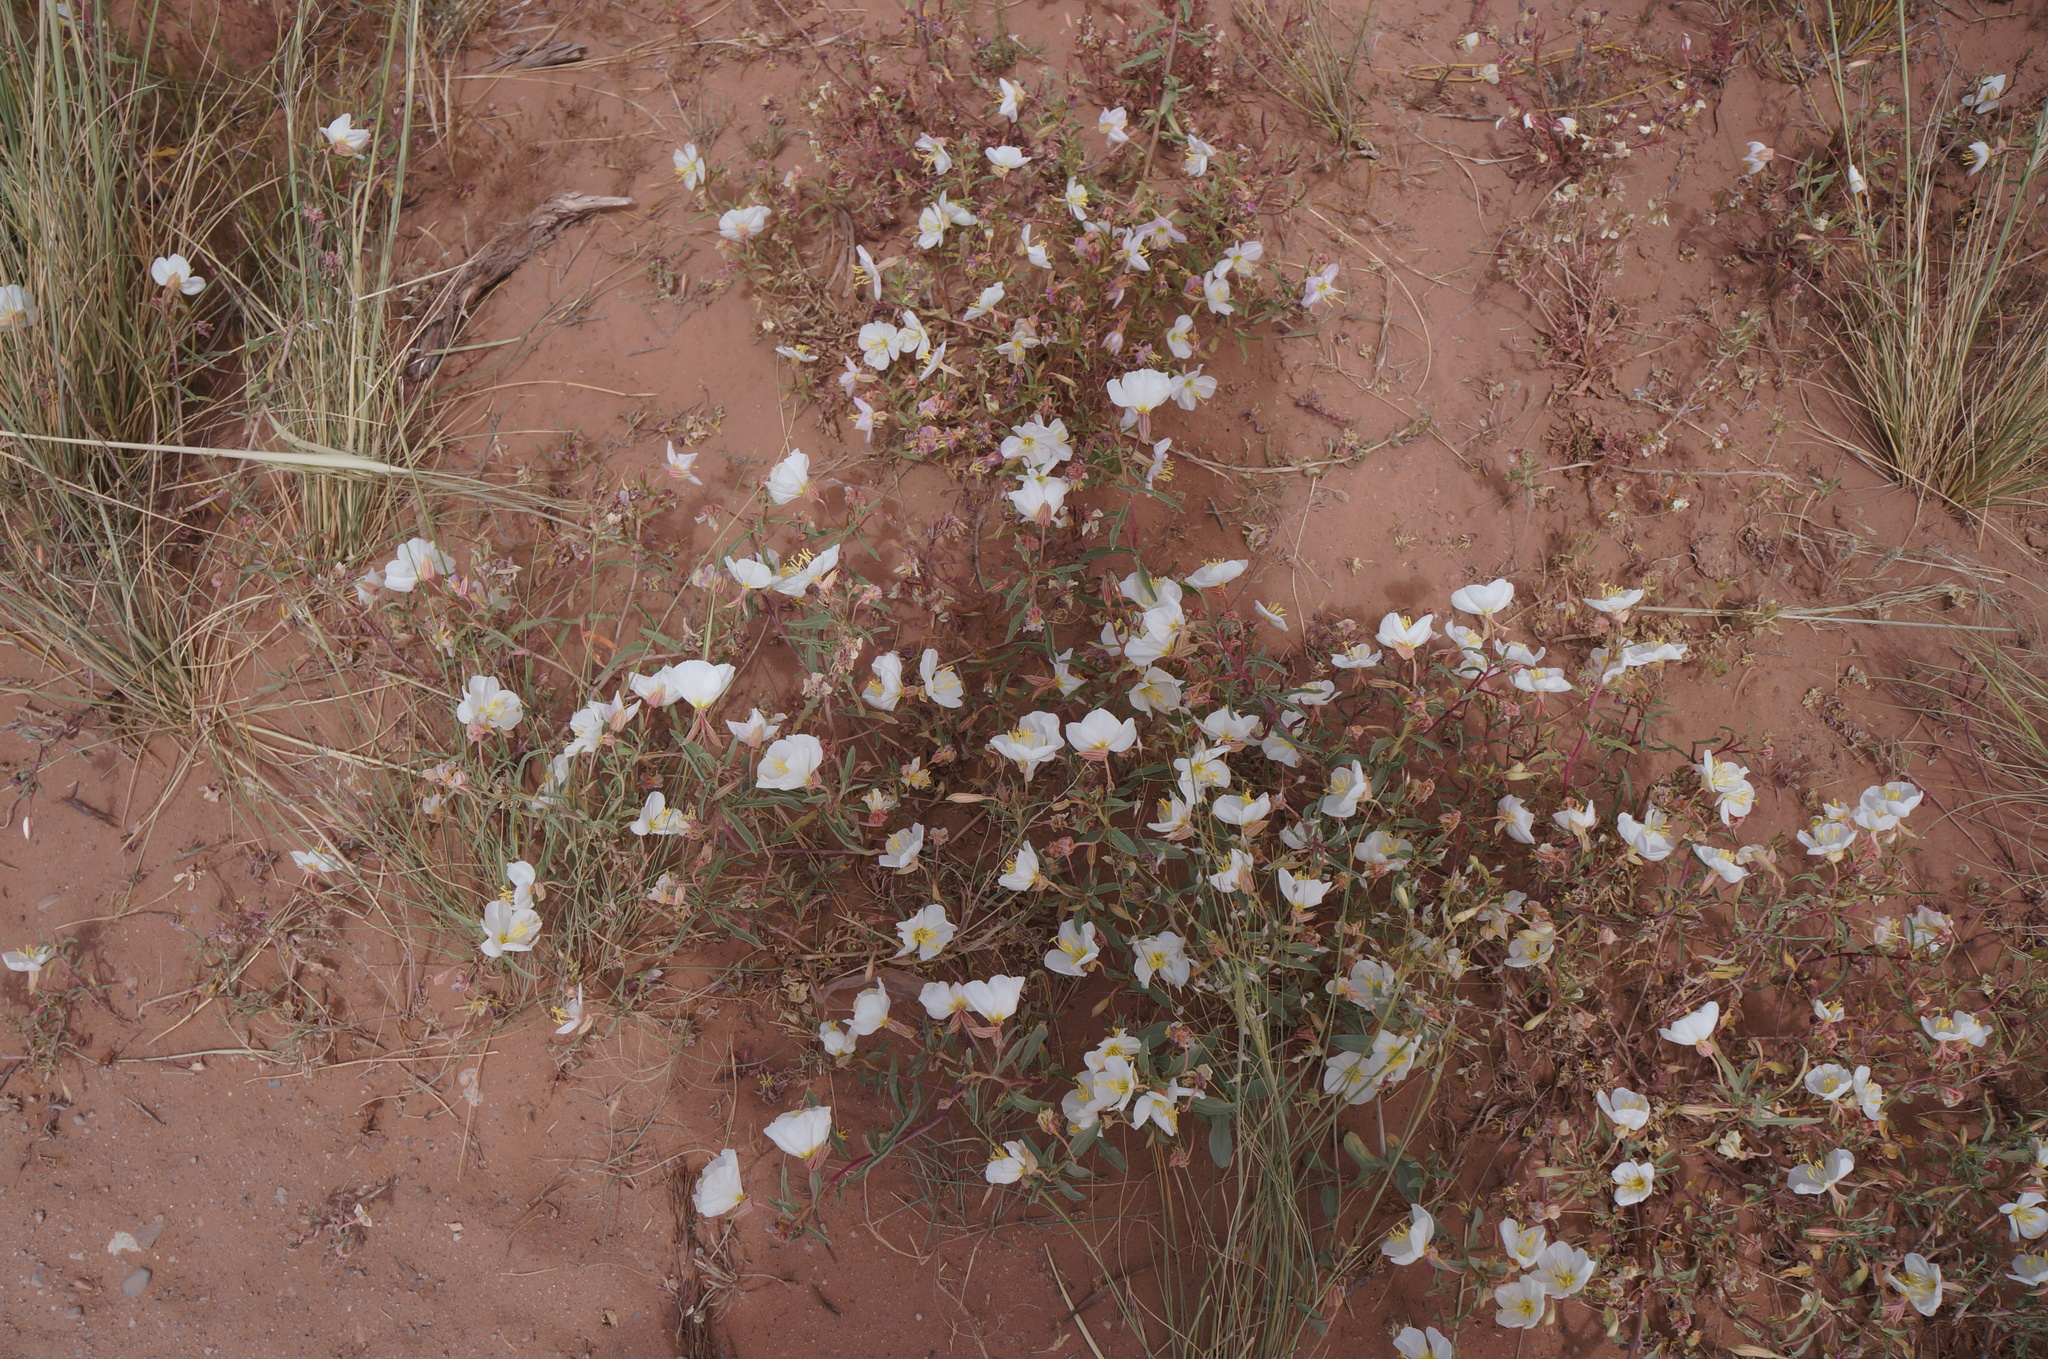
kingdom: Plantae
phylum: Tracheophyta
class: Magnoliopsida
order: Myrtales
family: Onagraceae
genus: Oenothera
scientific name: Oenothera pallida
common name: Pale evening-primrose
